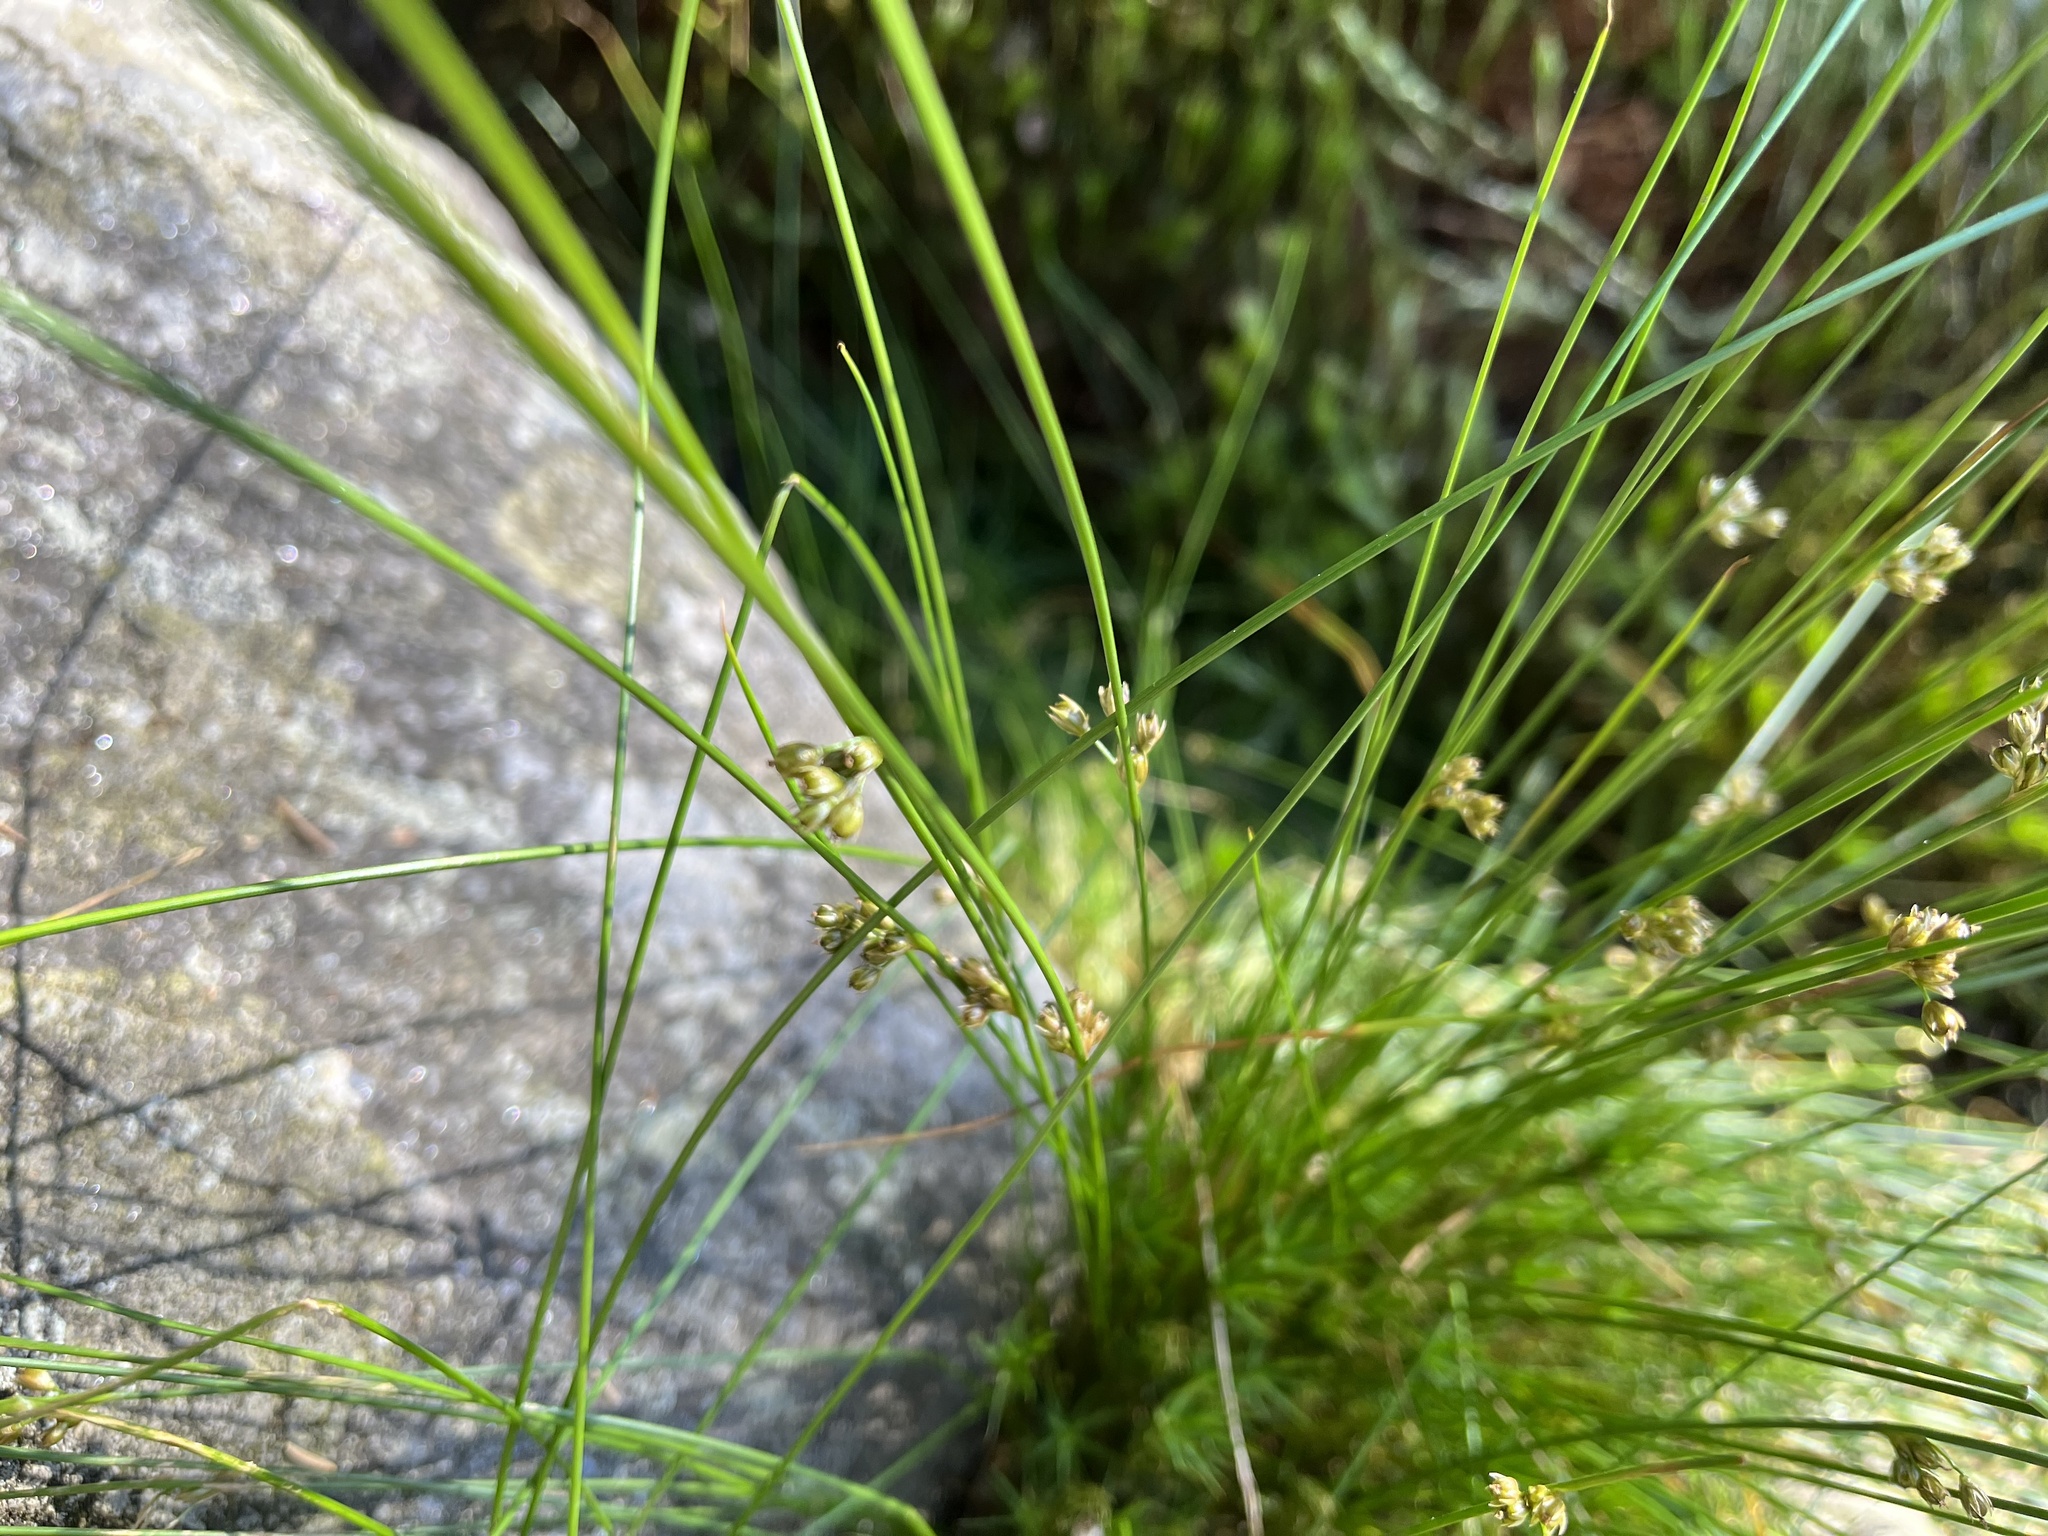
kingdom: Plantae
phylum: Tracheophyta
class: Liliopsida
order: Poales
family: Juncaceae
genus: Juncus
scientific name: Juncus filiformis
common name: Thread rush
